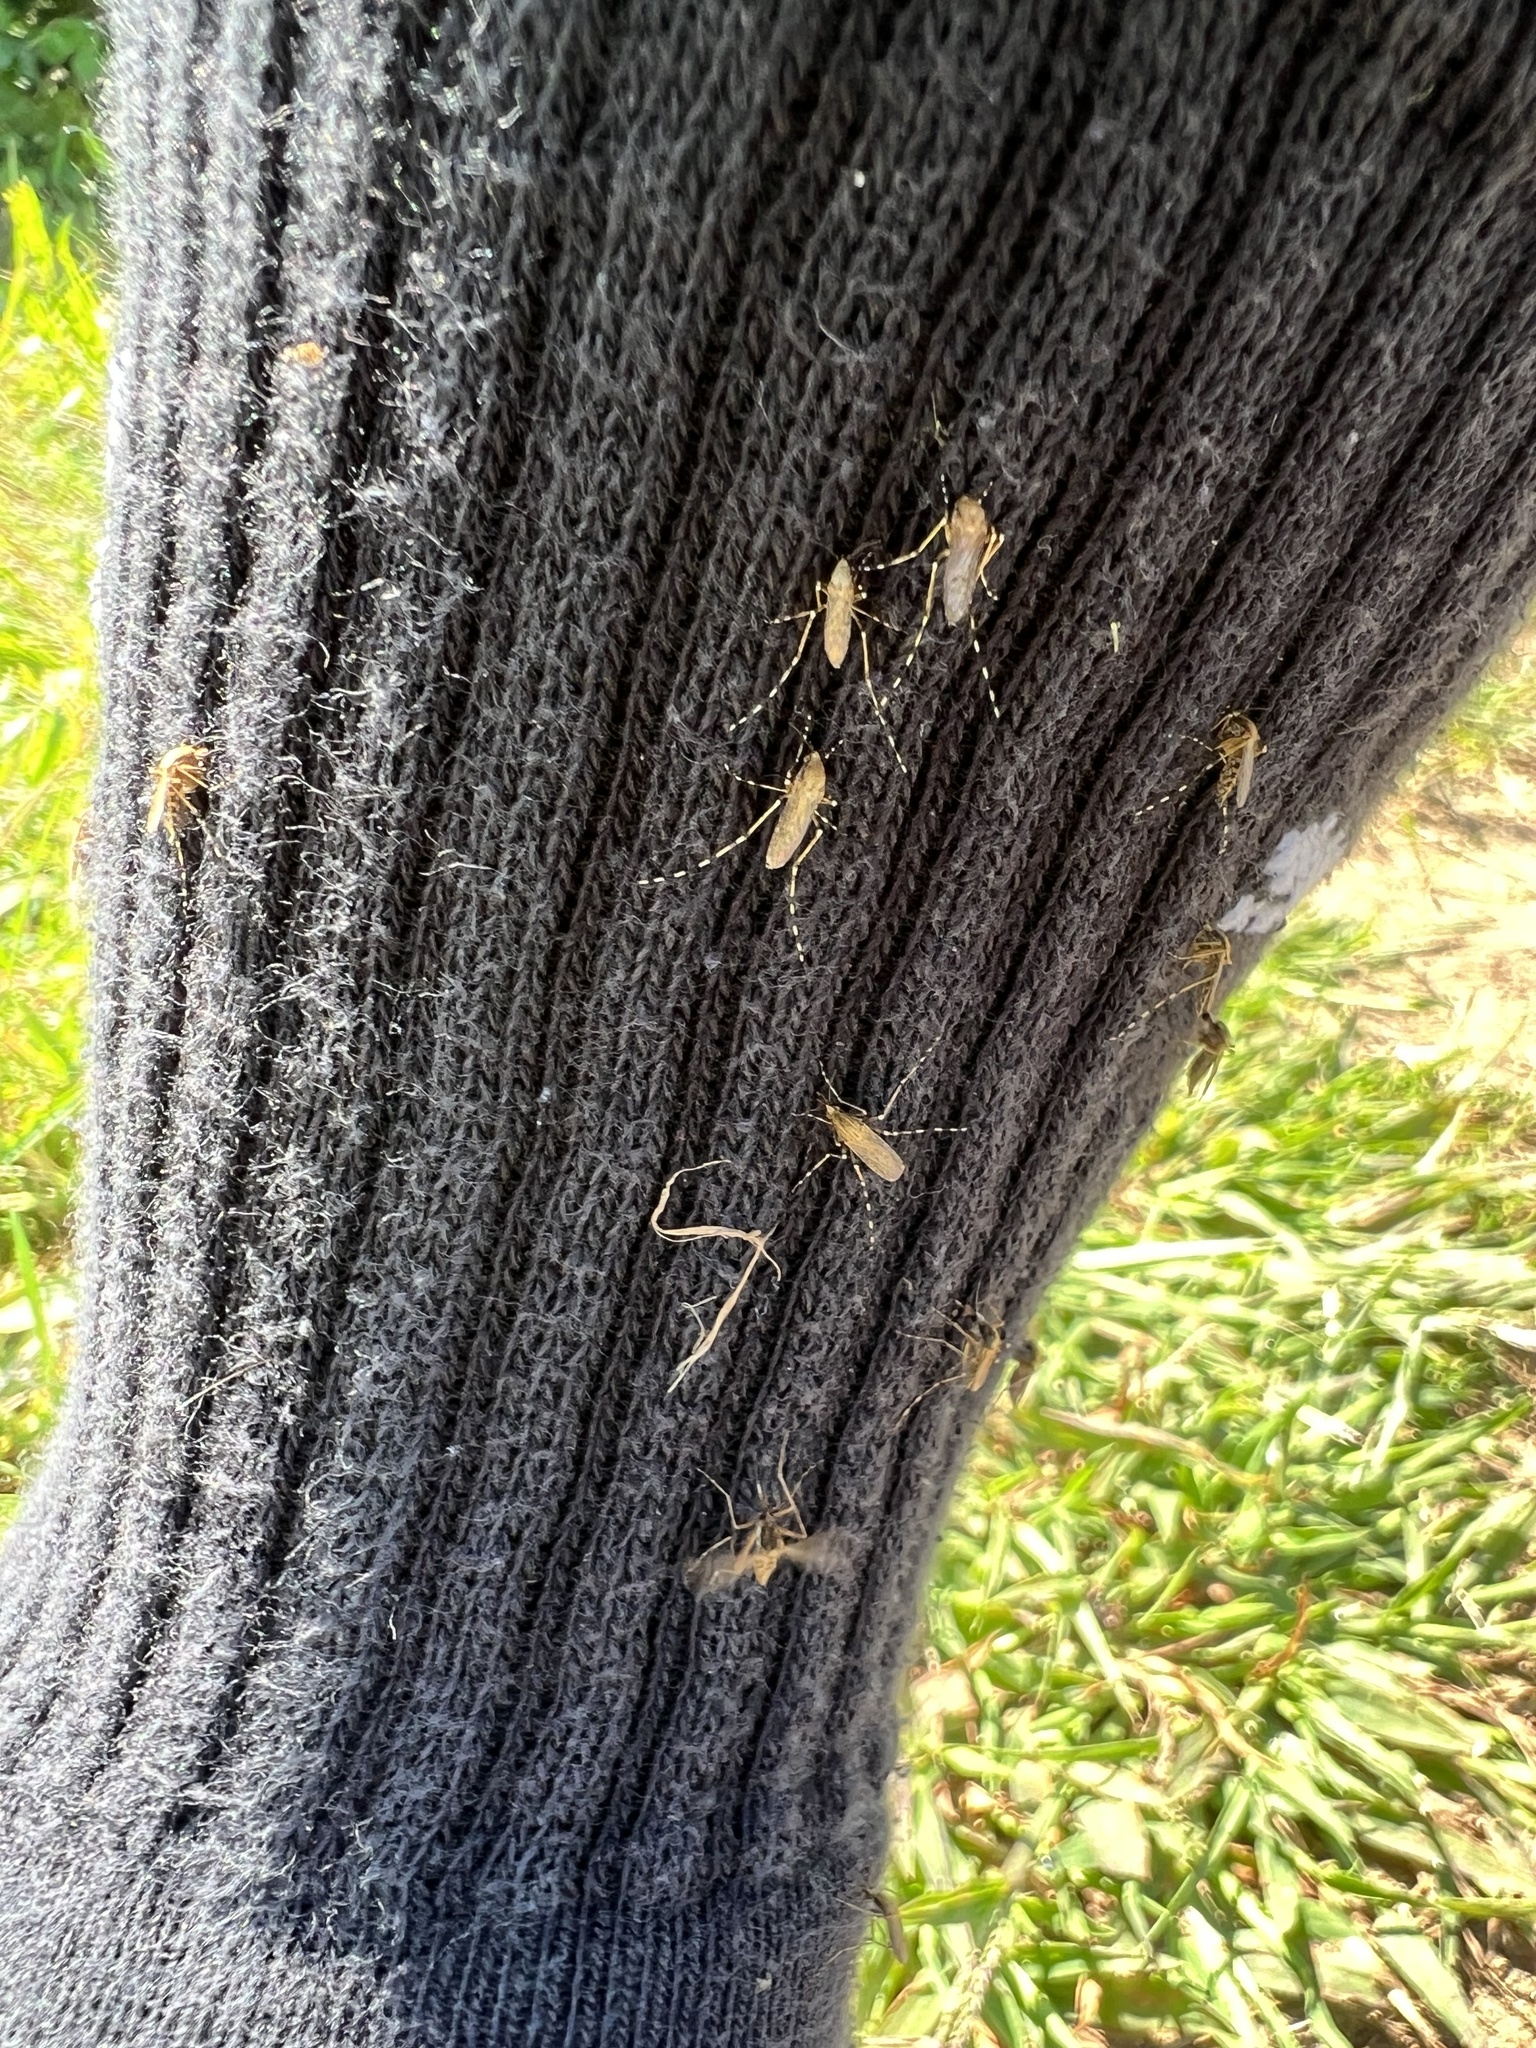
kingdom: Animalia
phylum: Arthropoda
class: Insecta
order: Diptera
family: Culicidae
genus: Aedes
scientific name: Aedes sollicitans
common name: Saltmarsh mosquito
